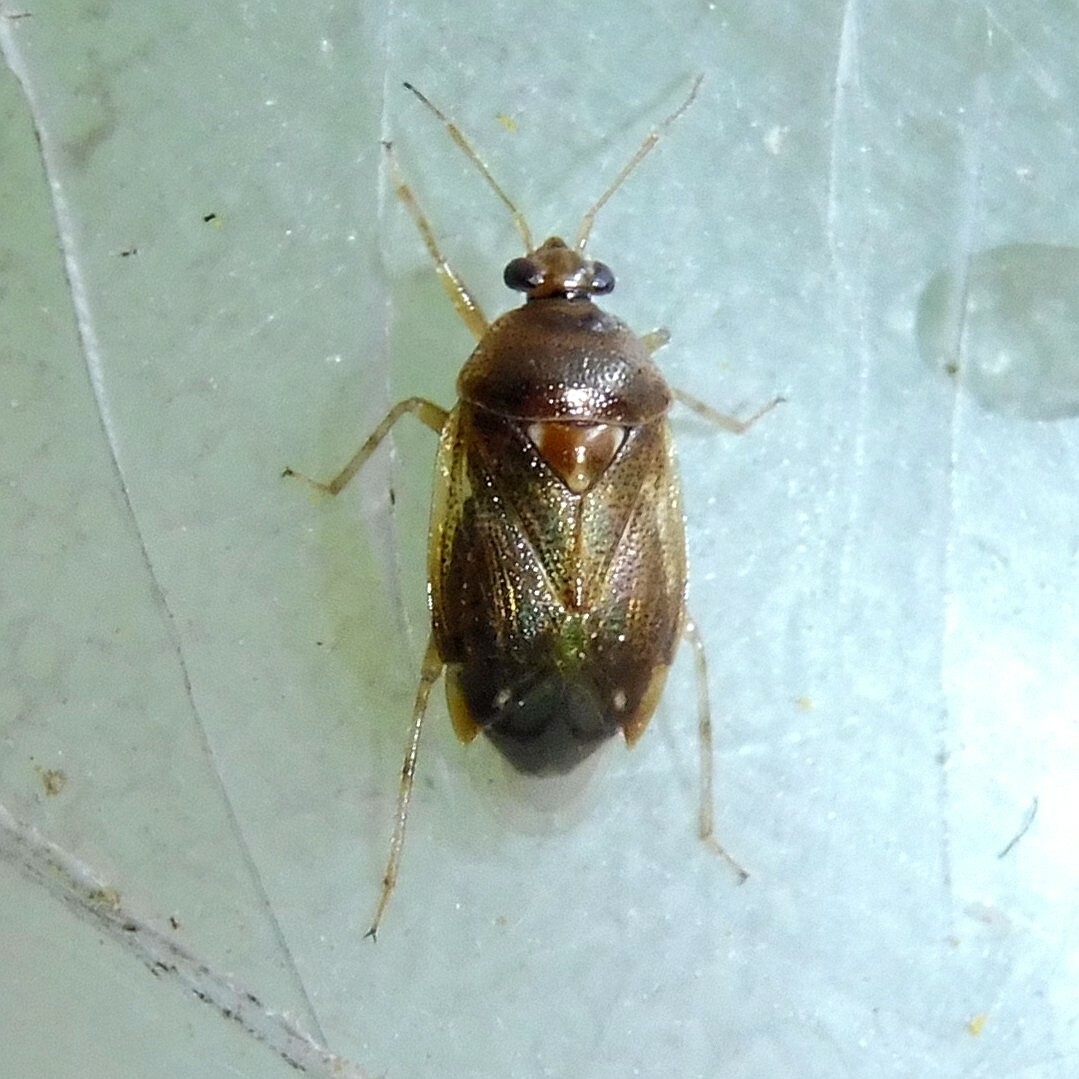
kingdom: Animalia
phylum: Arthropoda
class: Insecta
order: Hemiptera
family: Miridae
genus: Deraeocoris
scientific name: Deraeocoris lutescens
